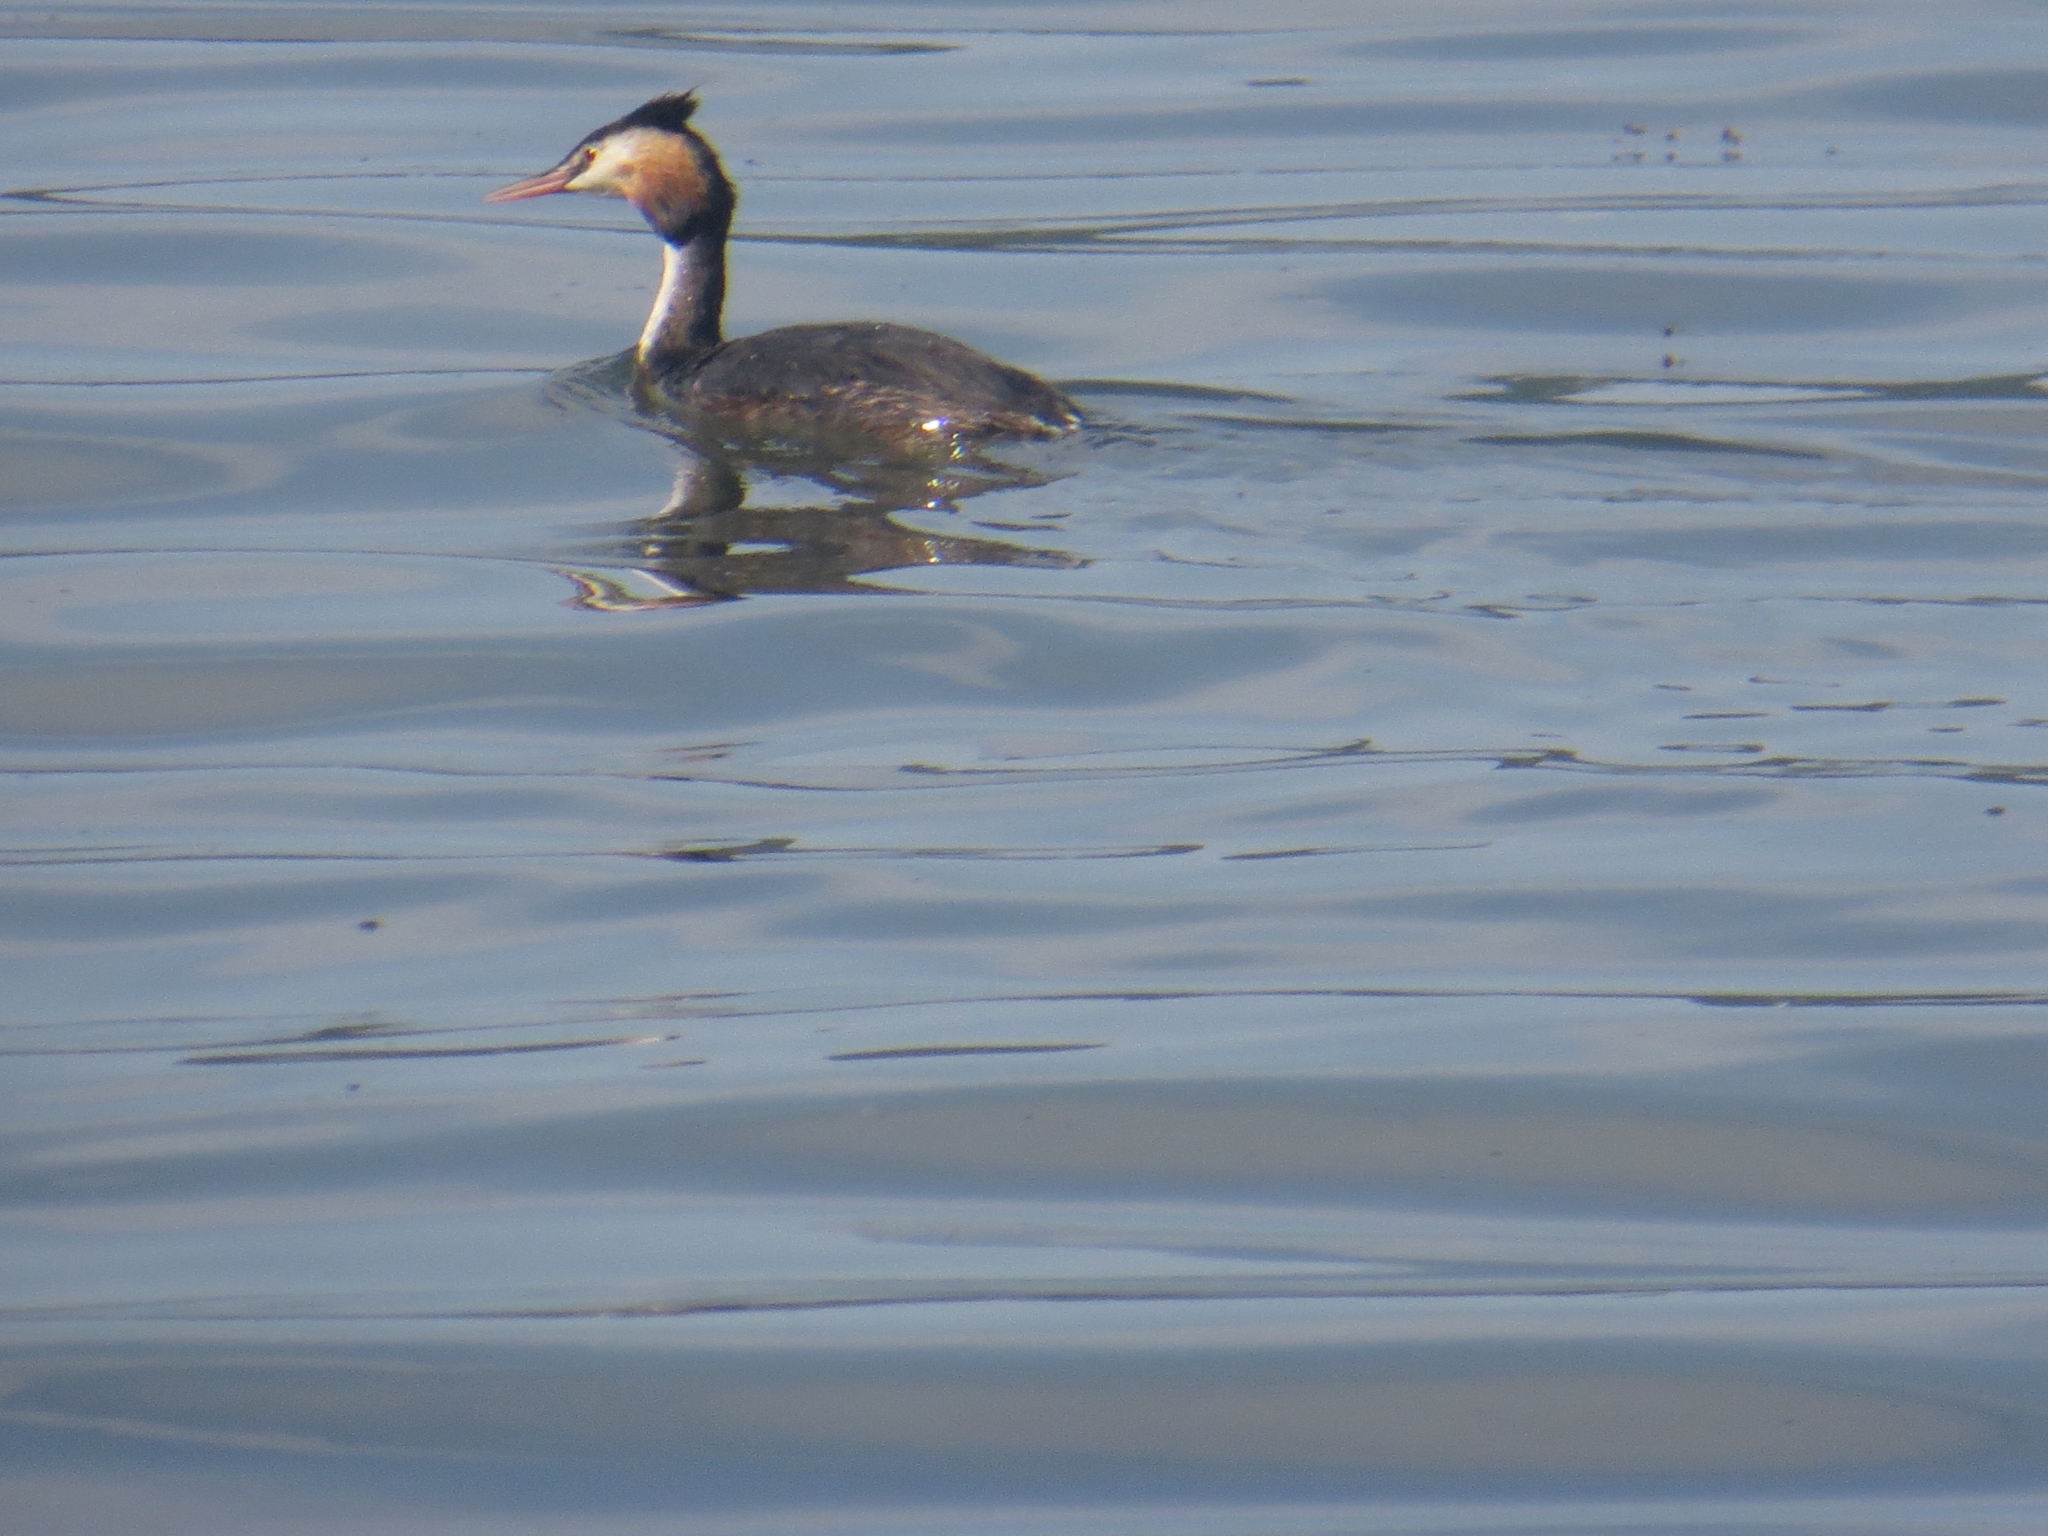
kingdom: Animalia
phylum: Chordata
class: Aves
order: Podicipediformes
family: Podicipedidae
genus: Podiceps
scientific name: Podiceps cristatus
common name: Great crested grebe
